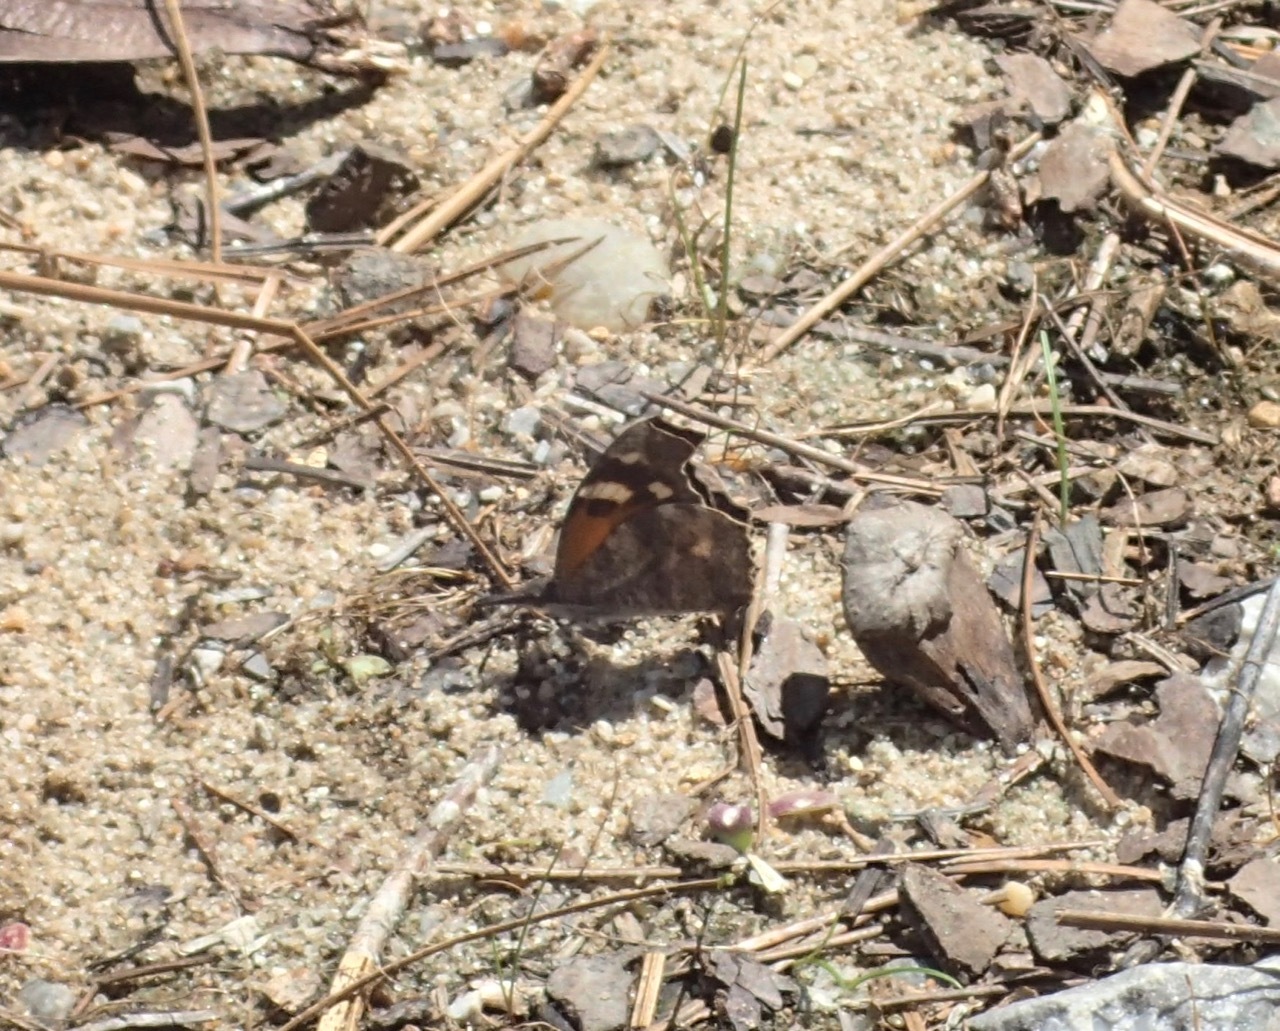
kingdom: Animalia
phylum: Arthropoda
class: Insecta
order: Lepidoptera
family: Nymphalidae
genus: Libytheana
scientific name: Libytheana carinenta
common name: American snout
